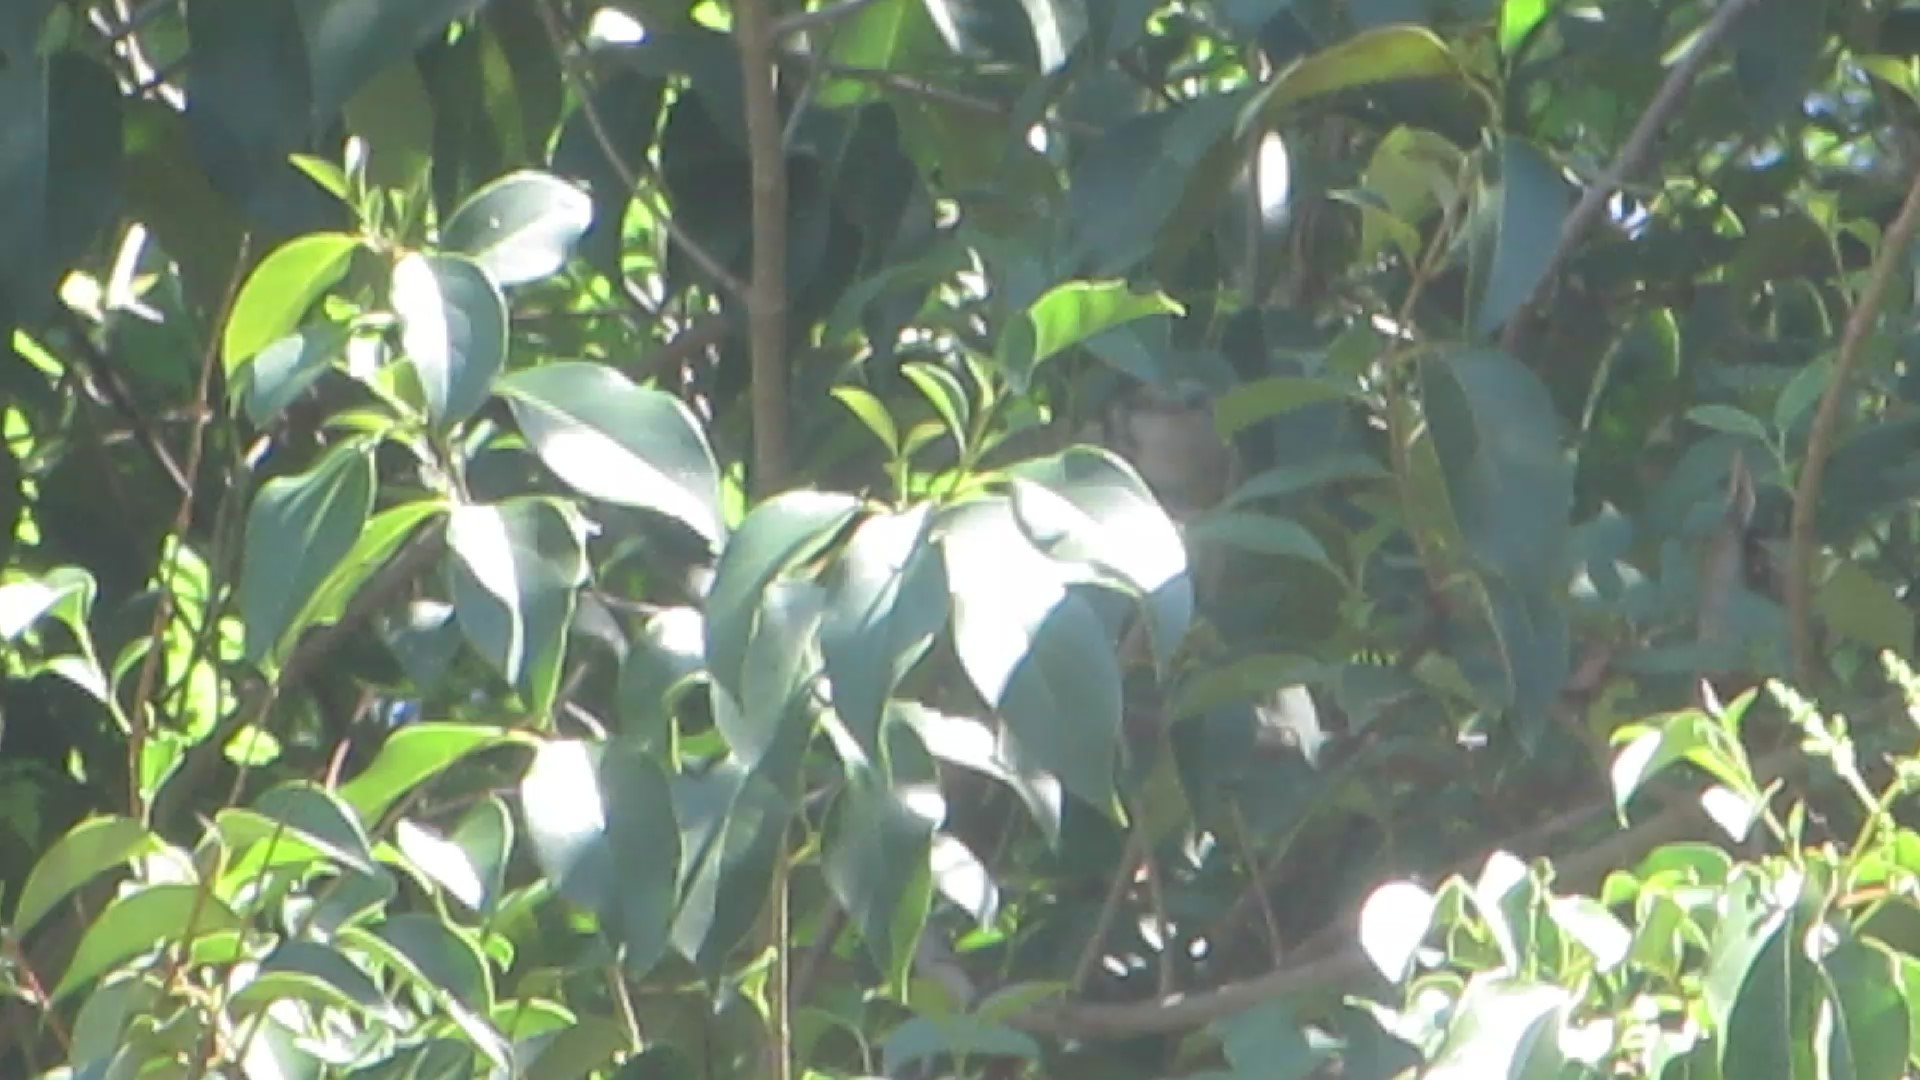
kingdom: Animalia
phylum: Chordata
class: Aves
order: Passeriformes
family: Paridae
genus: Baeolophus
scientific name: Baeolophus bicolor
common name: Tufted titmouse
